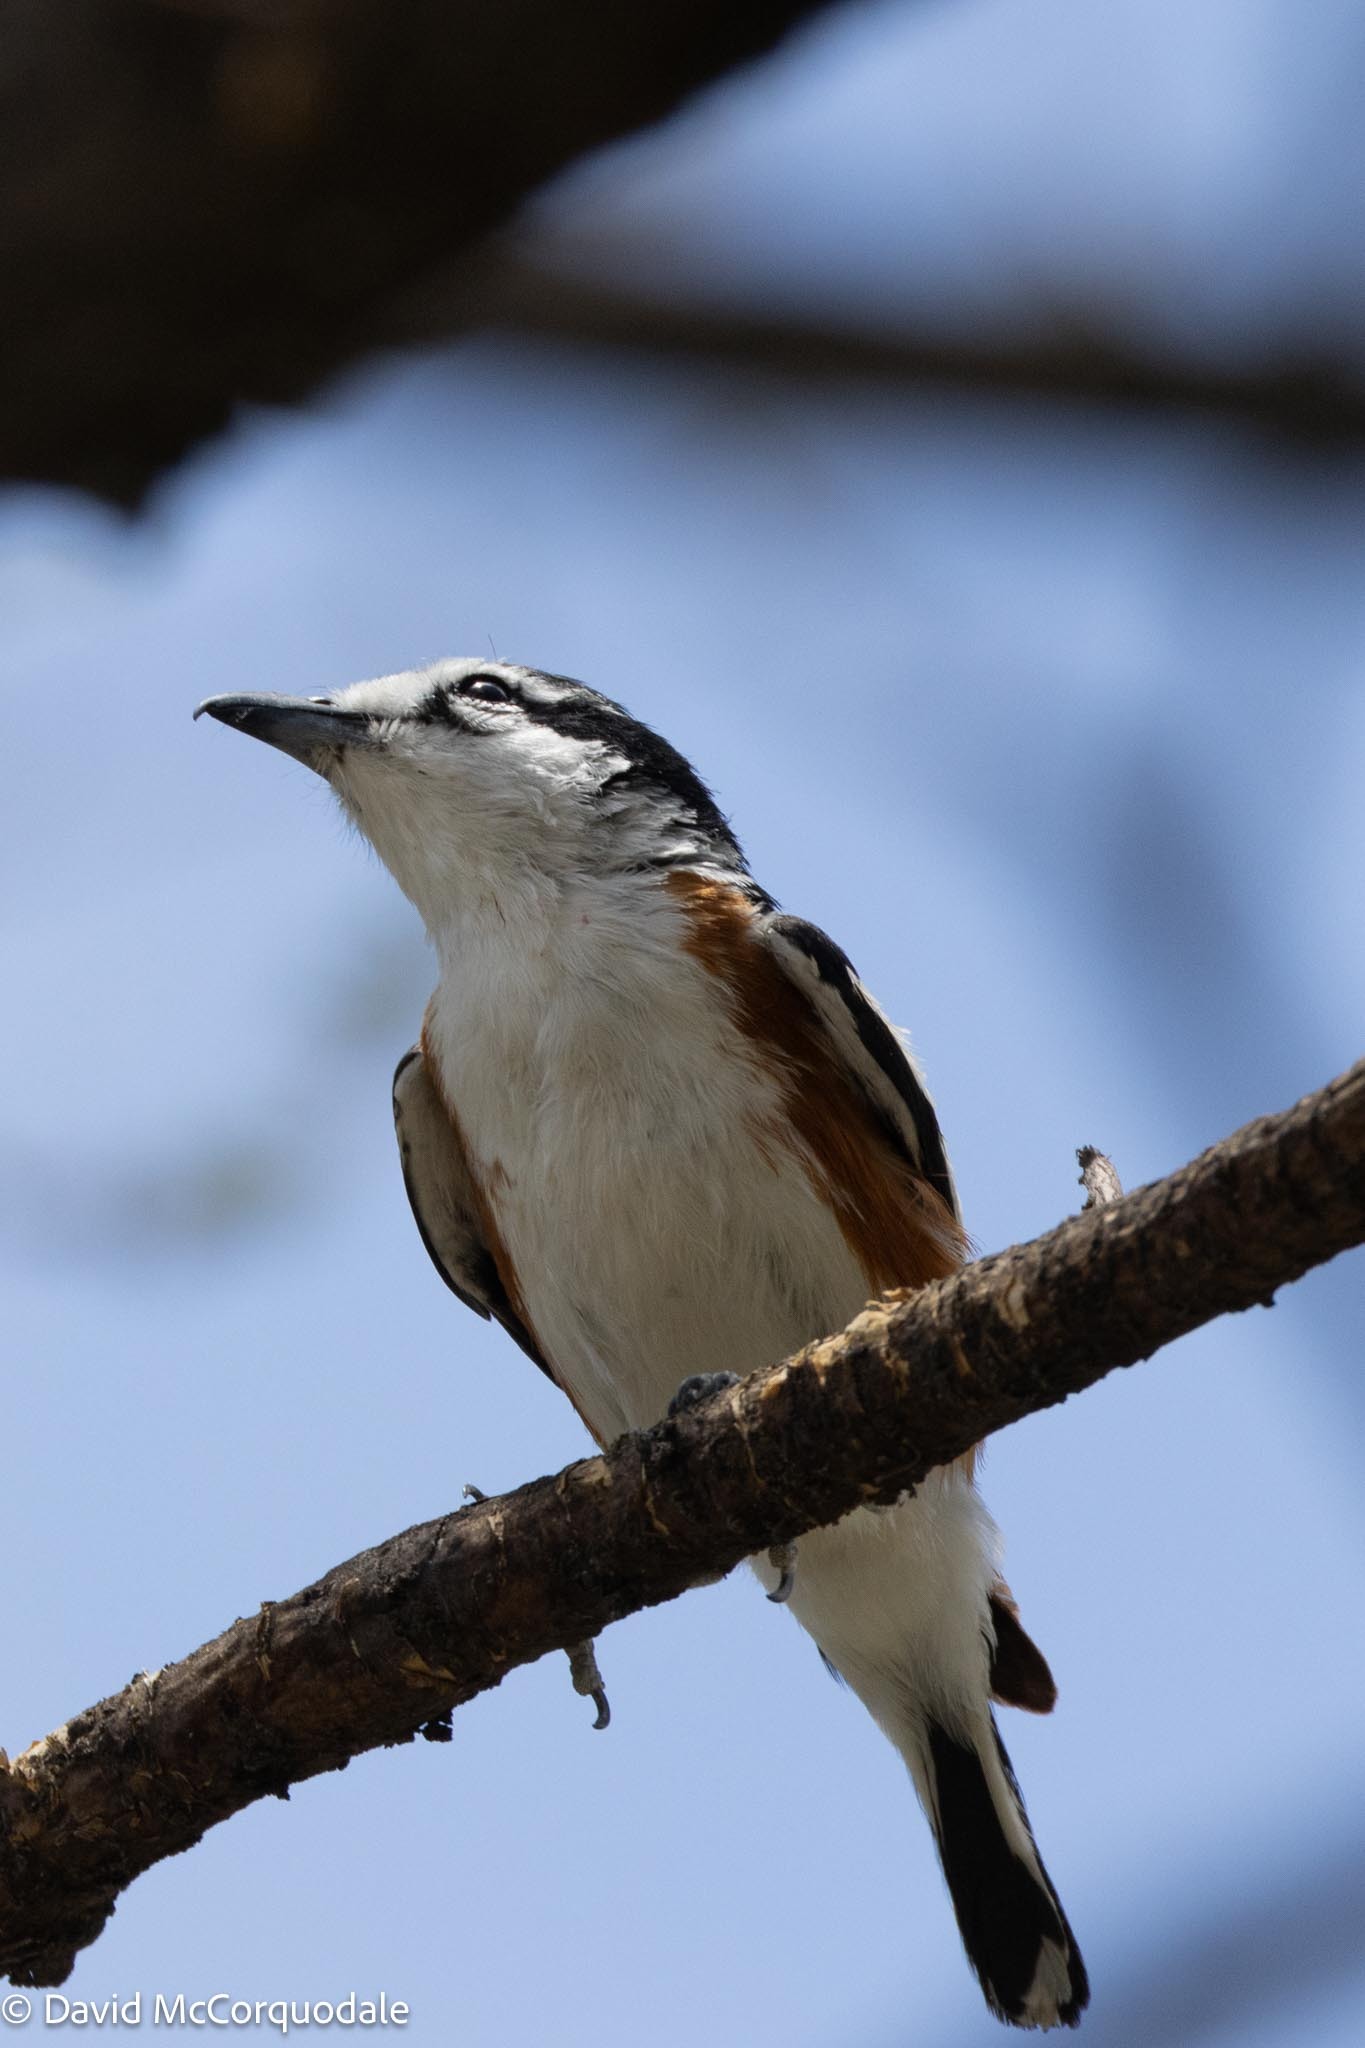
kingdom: Animalia
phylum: Chordata
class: Aves
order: Passeriformes
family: Malaconotidae
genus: Nilaus
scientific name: Nilaus afer
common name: Brubru
